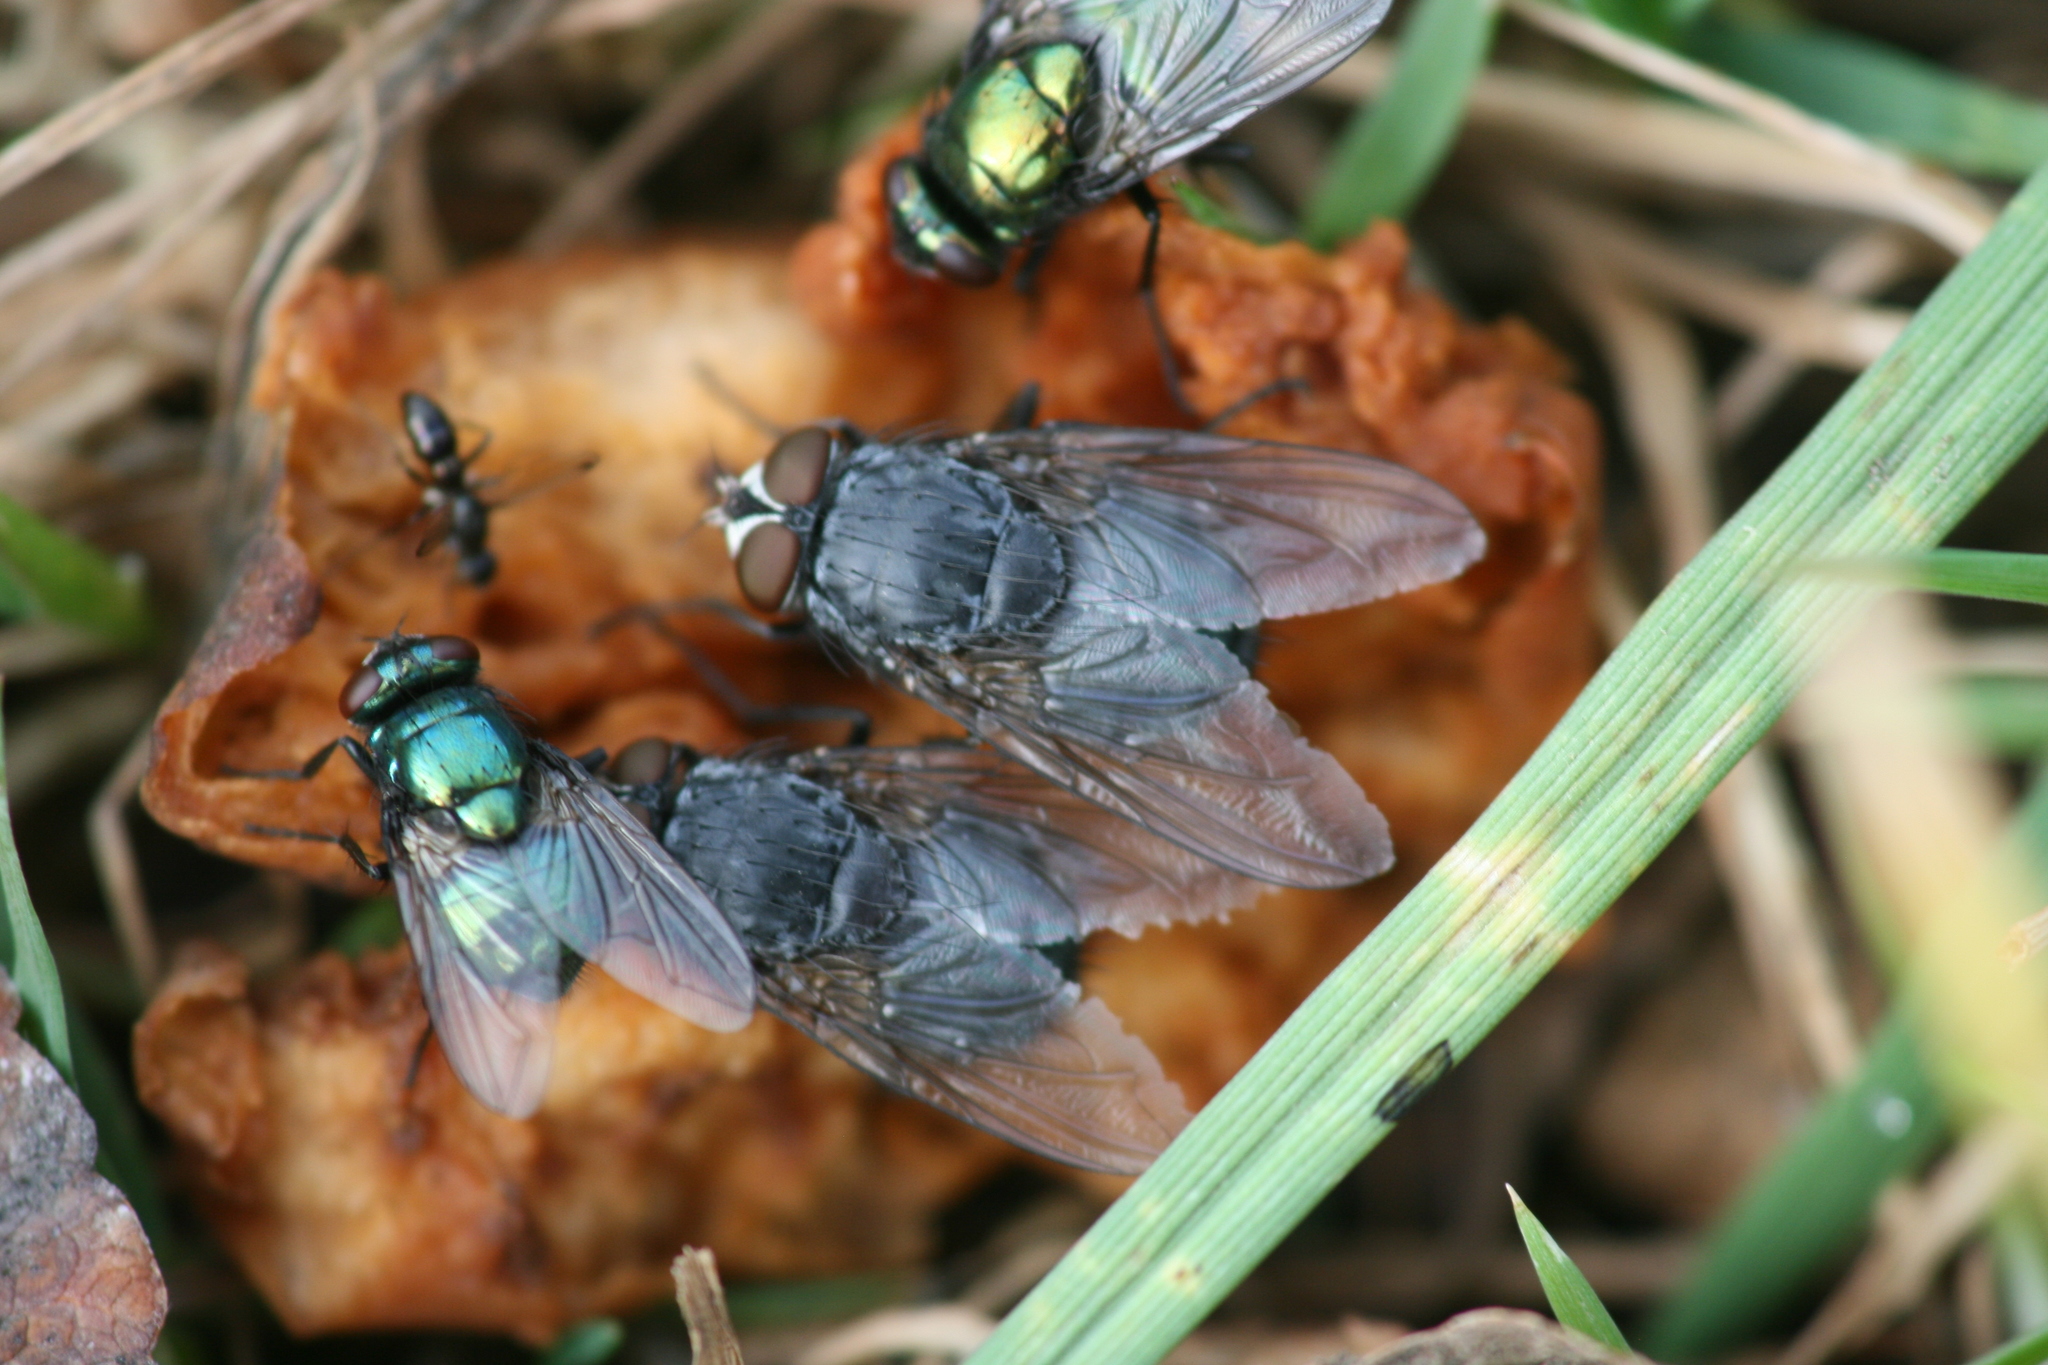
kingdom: Animalia
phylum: Arthropoda
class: Insecta
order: Diptera
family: Muscidae
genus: Neomyia
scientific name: Neomyia cornicina
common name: House fly
